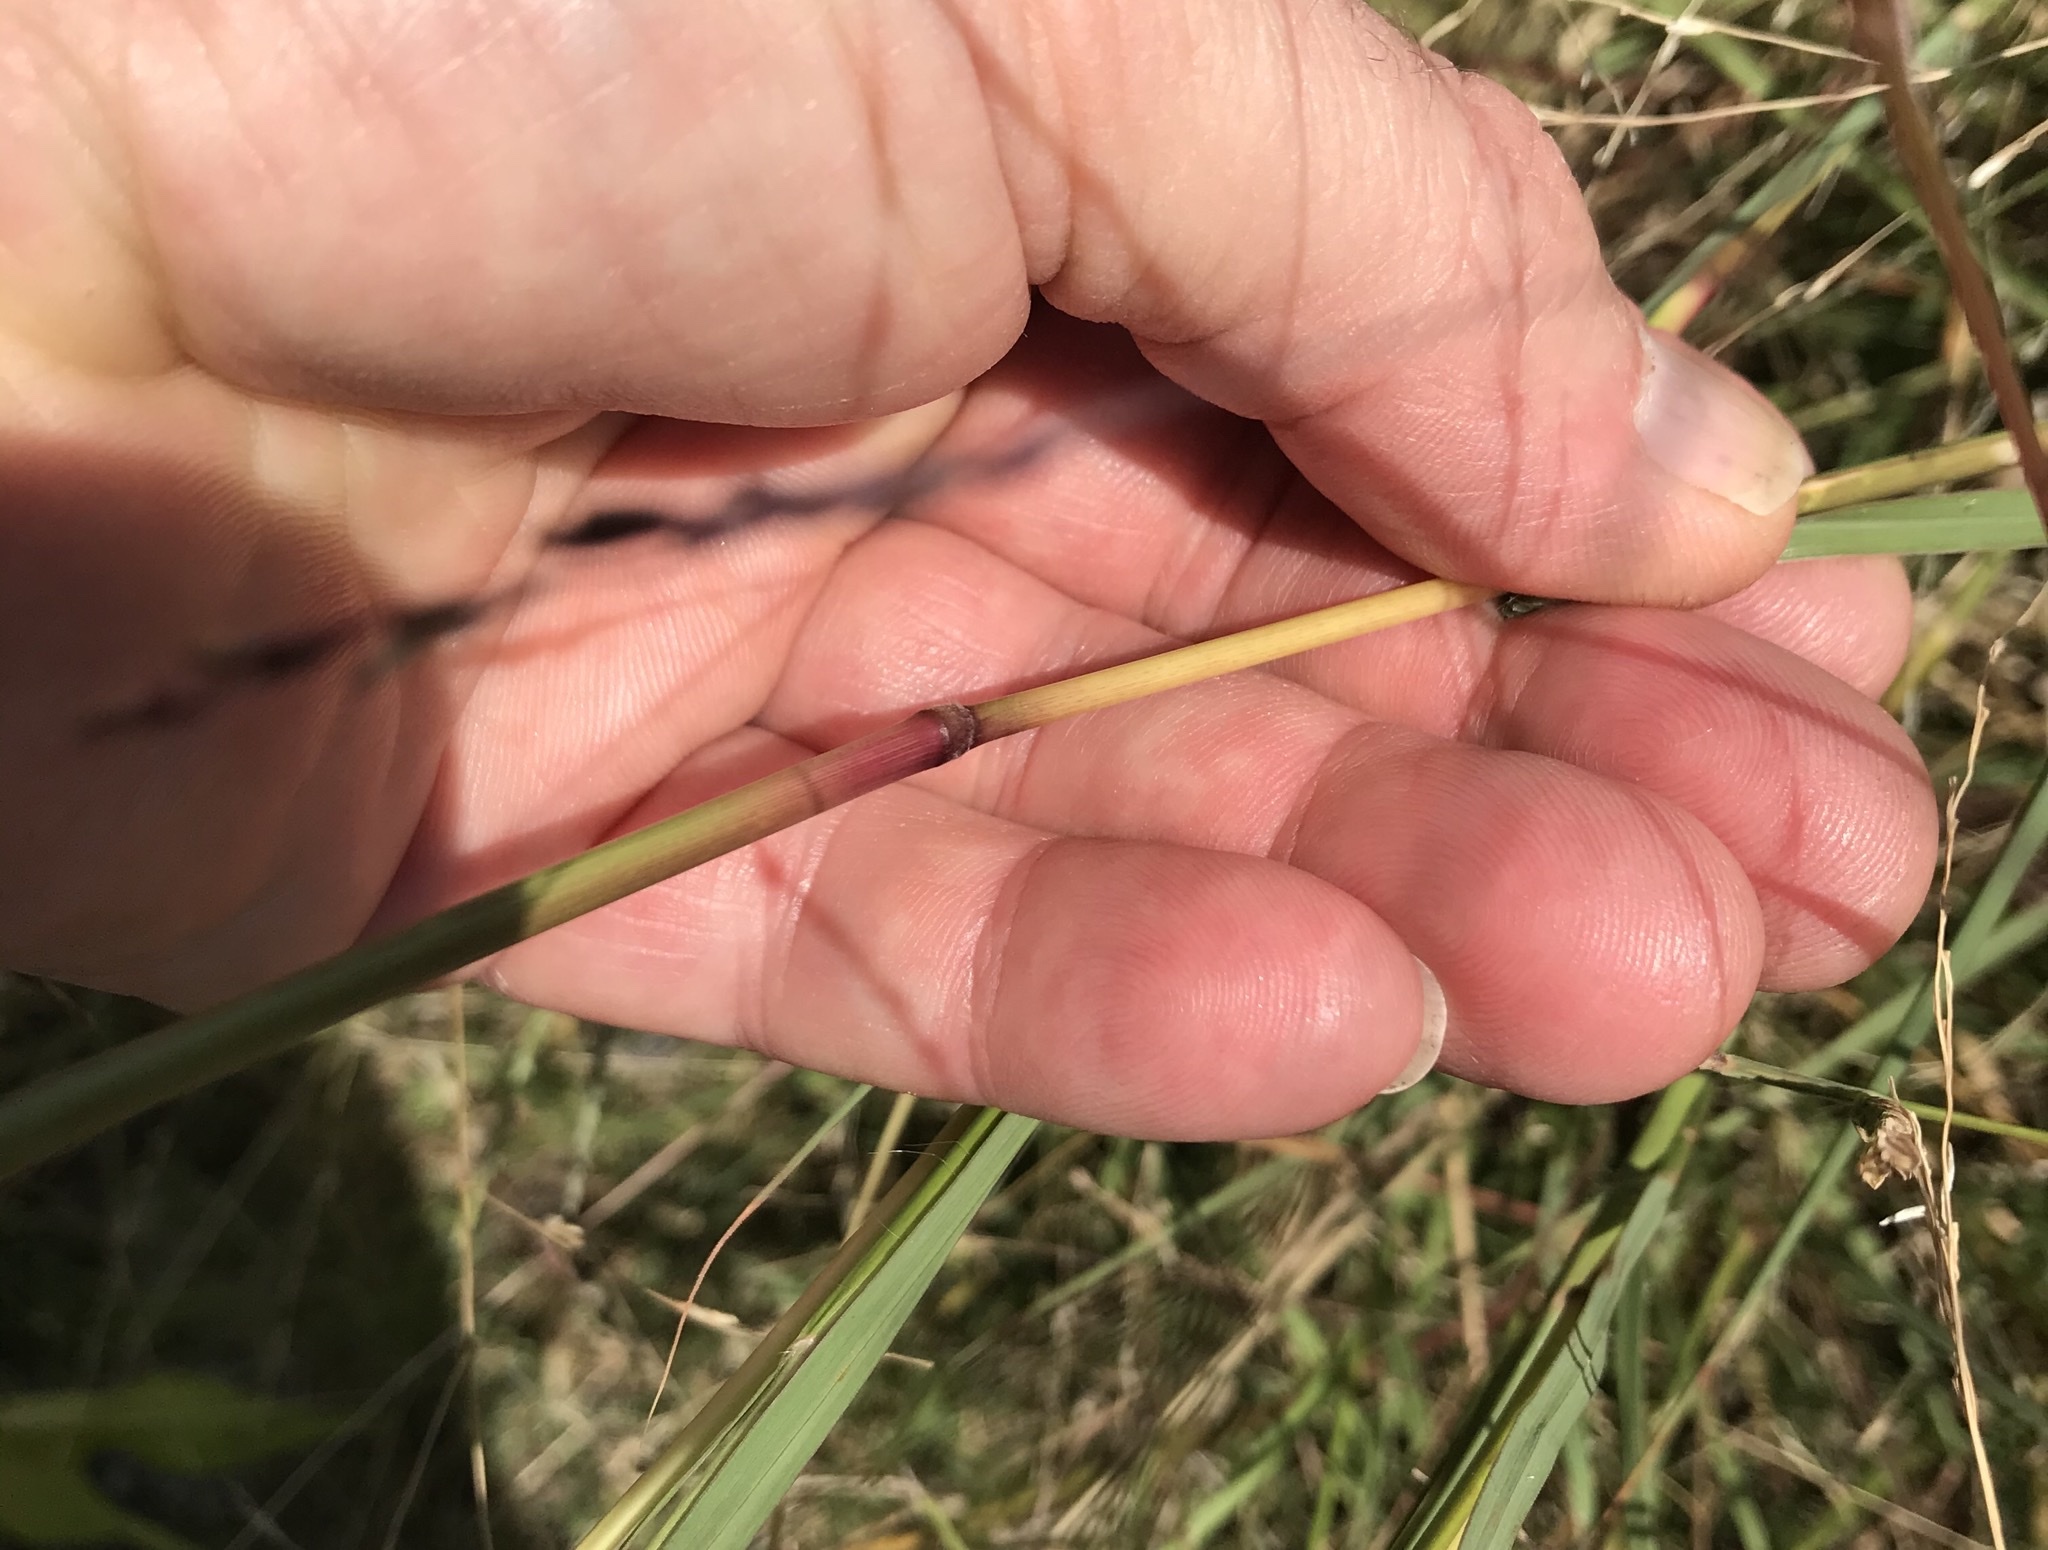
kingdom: Plantae
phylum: Tracheophyta
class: Liliopsida
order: Poales
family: Poaceae
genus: Bothriochloa
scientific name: Bothriochloa ischaemum
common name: Yellow bluestem
